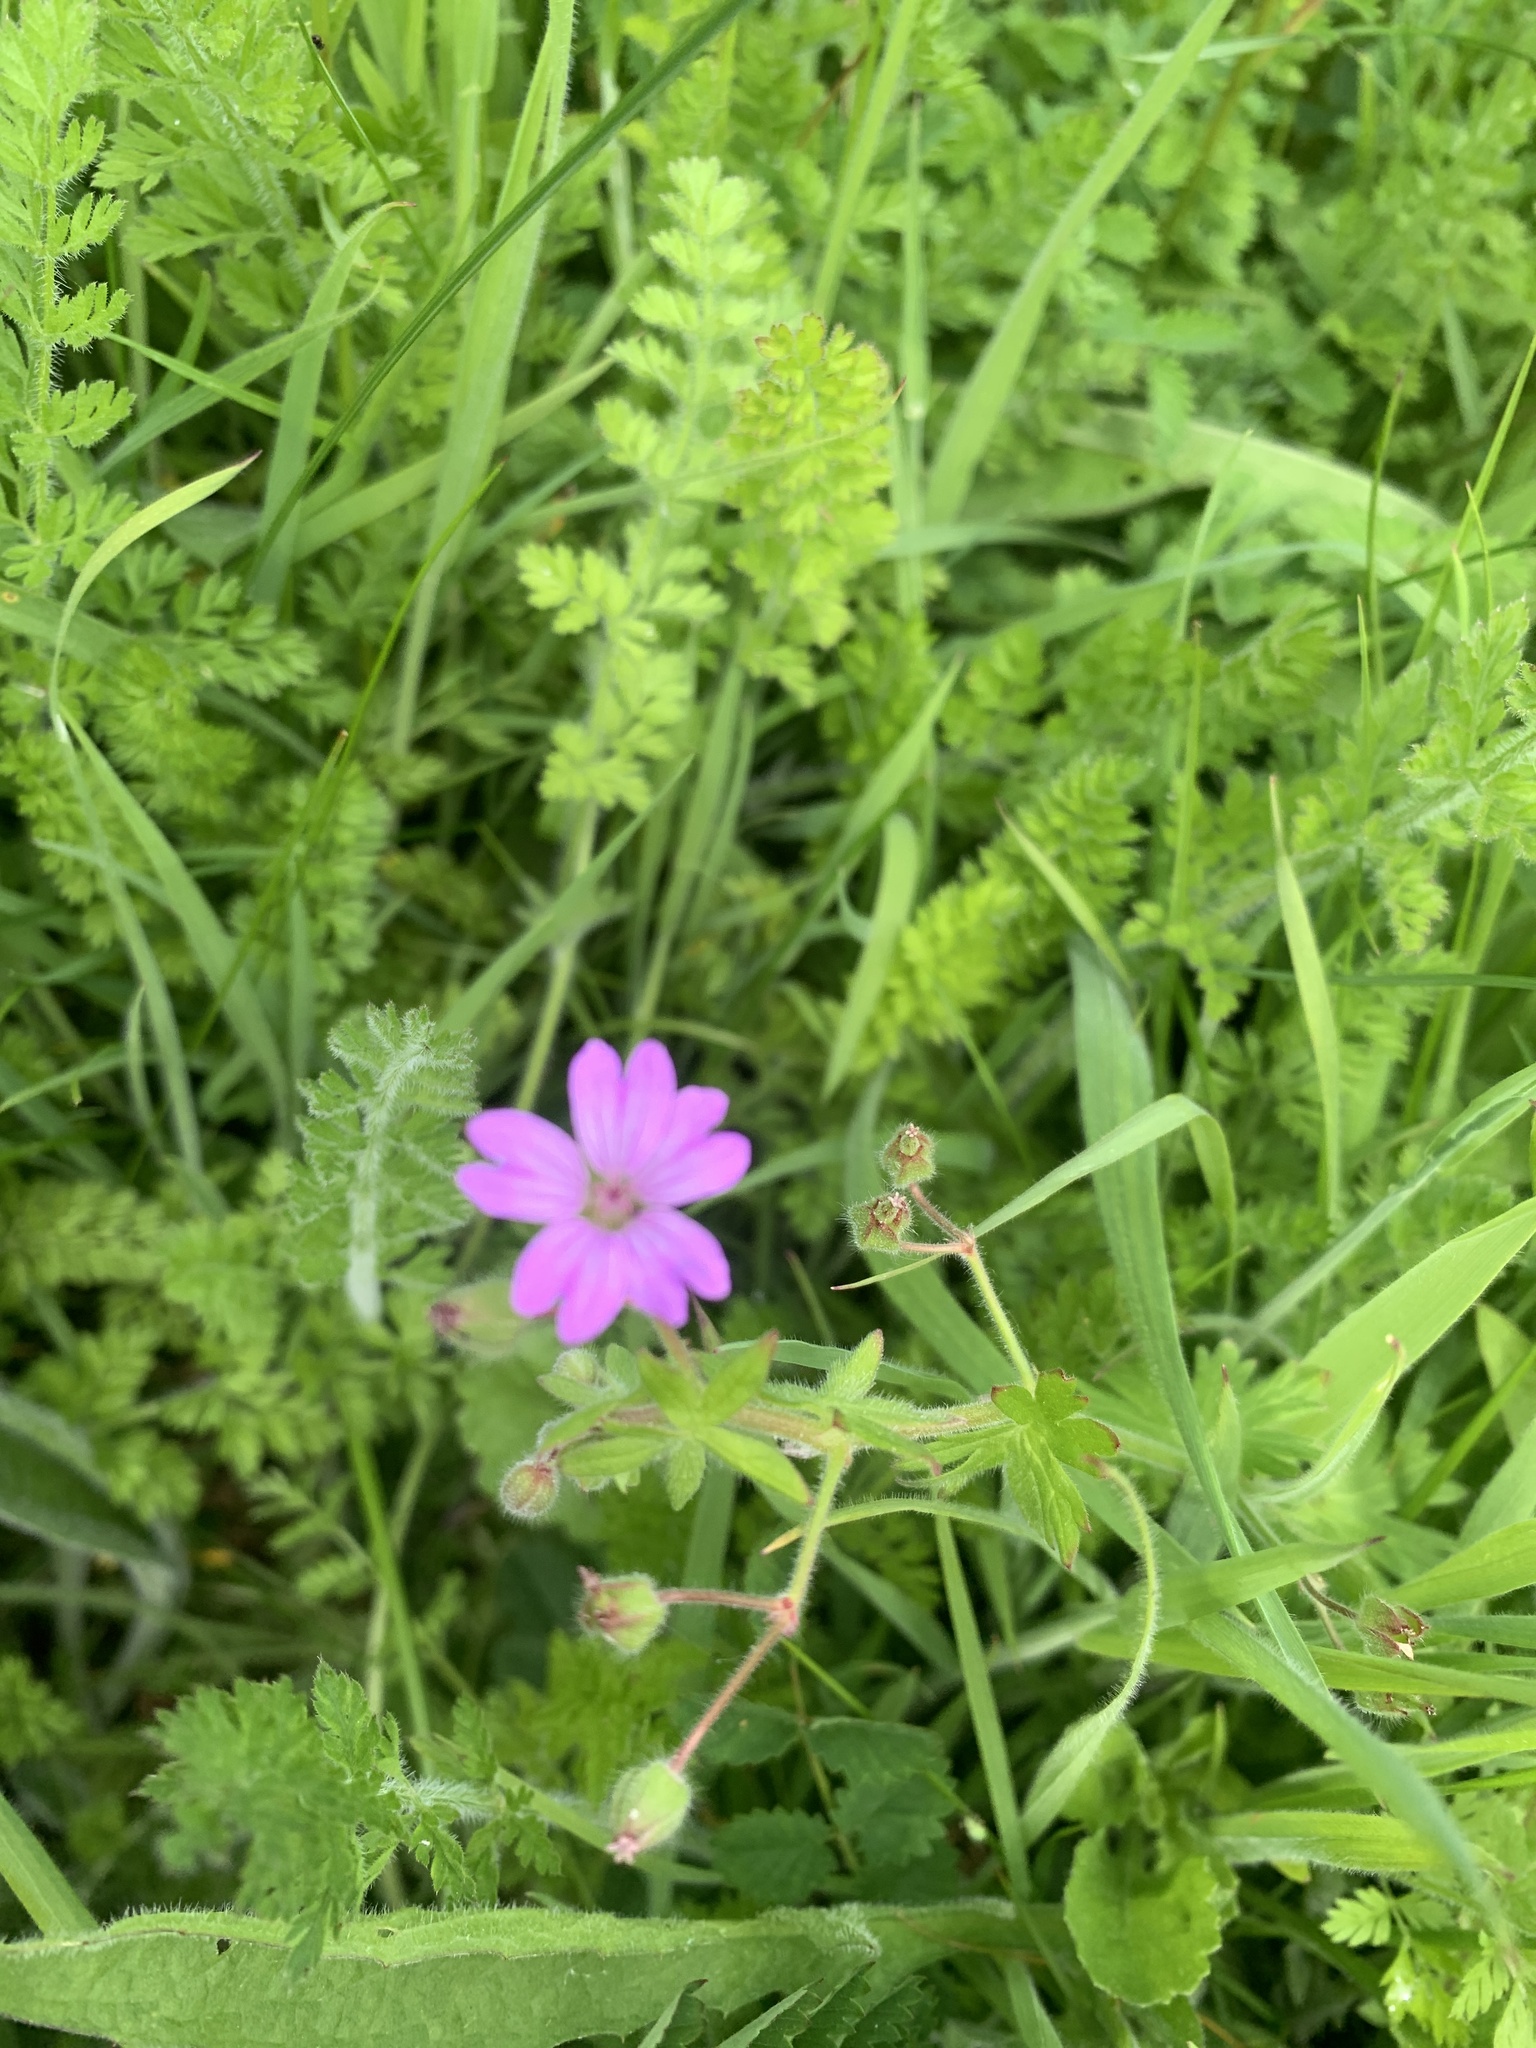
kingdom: Plantae
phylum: Tracheophyta
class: Magnoliopsida
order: Geraniales
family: Geraniaceae
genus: Geranium
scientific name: Geranium molle
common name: Dove's-foot crane's-bill
